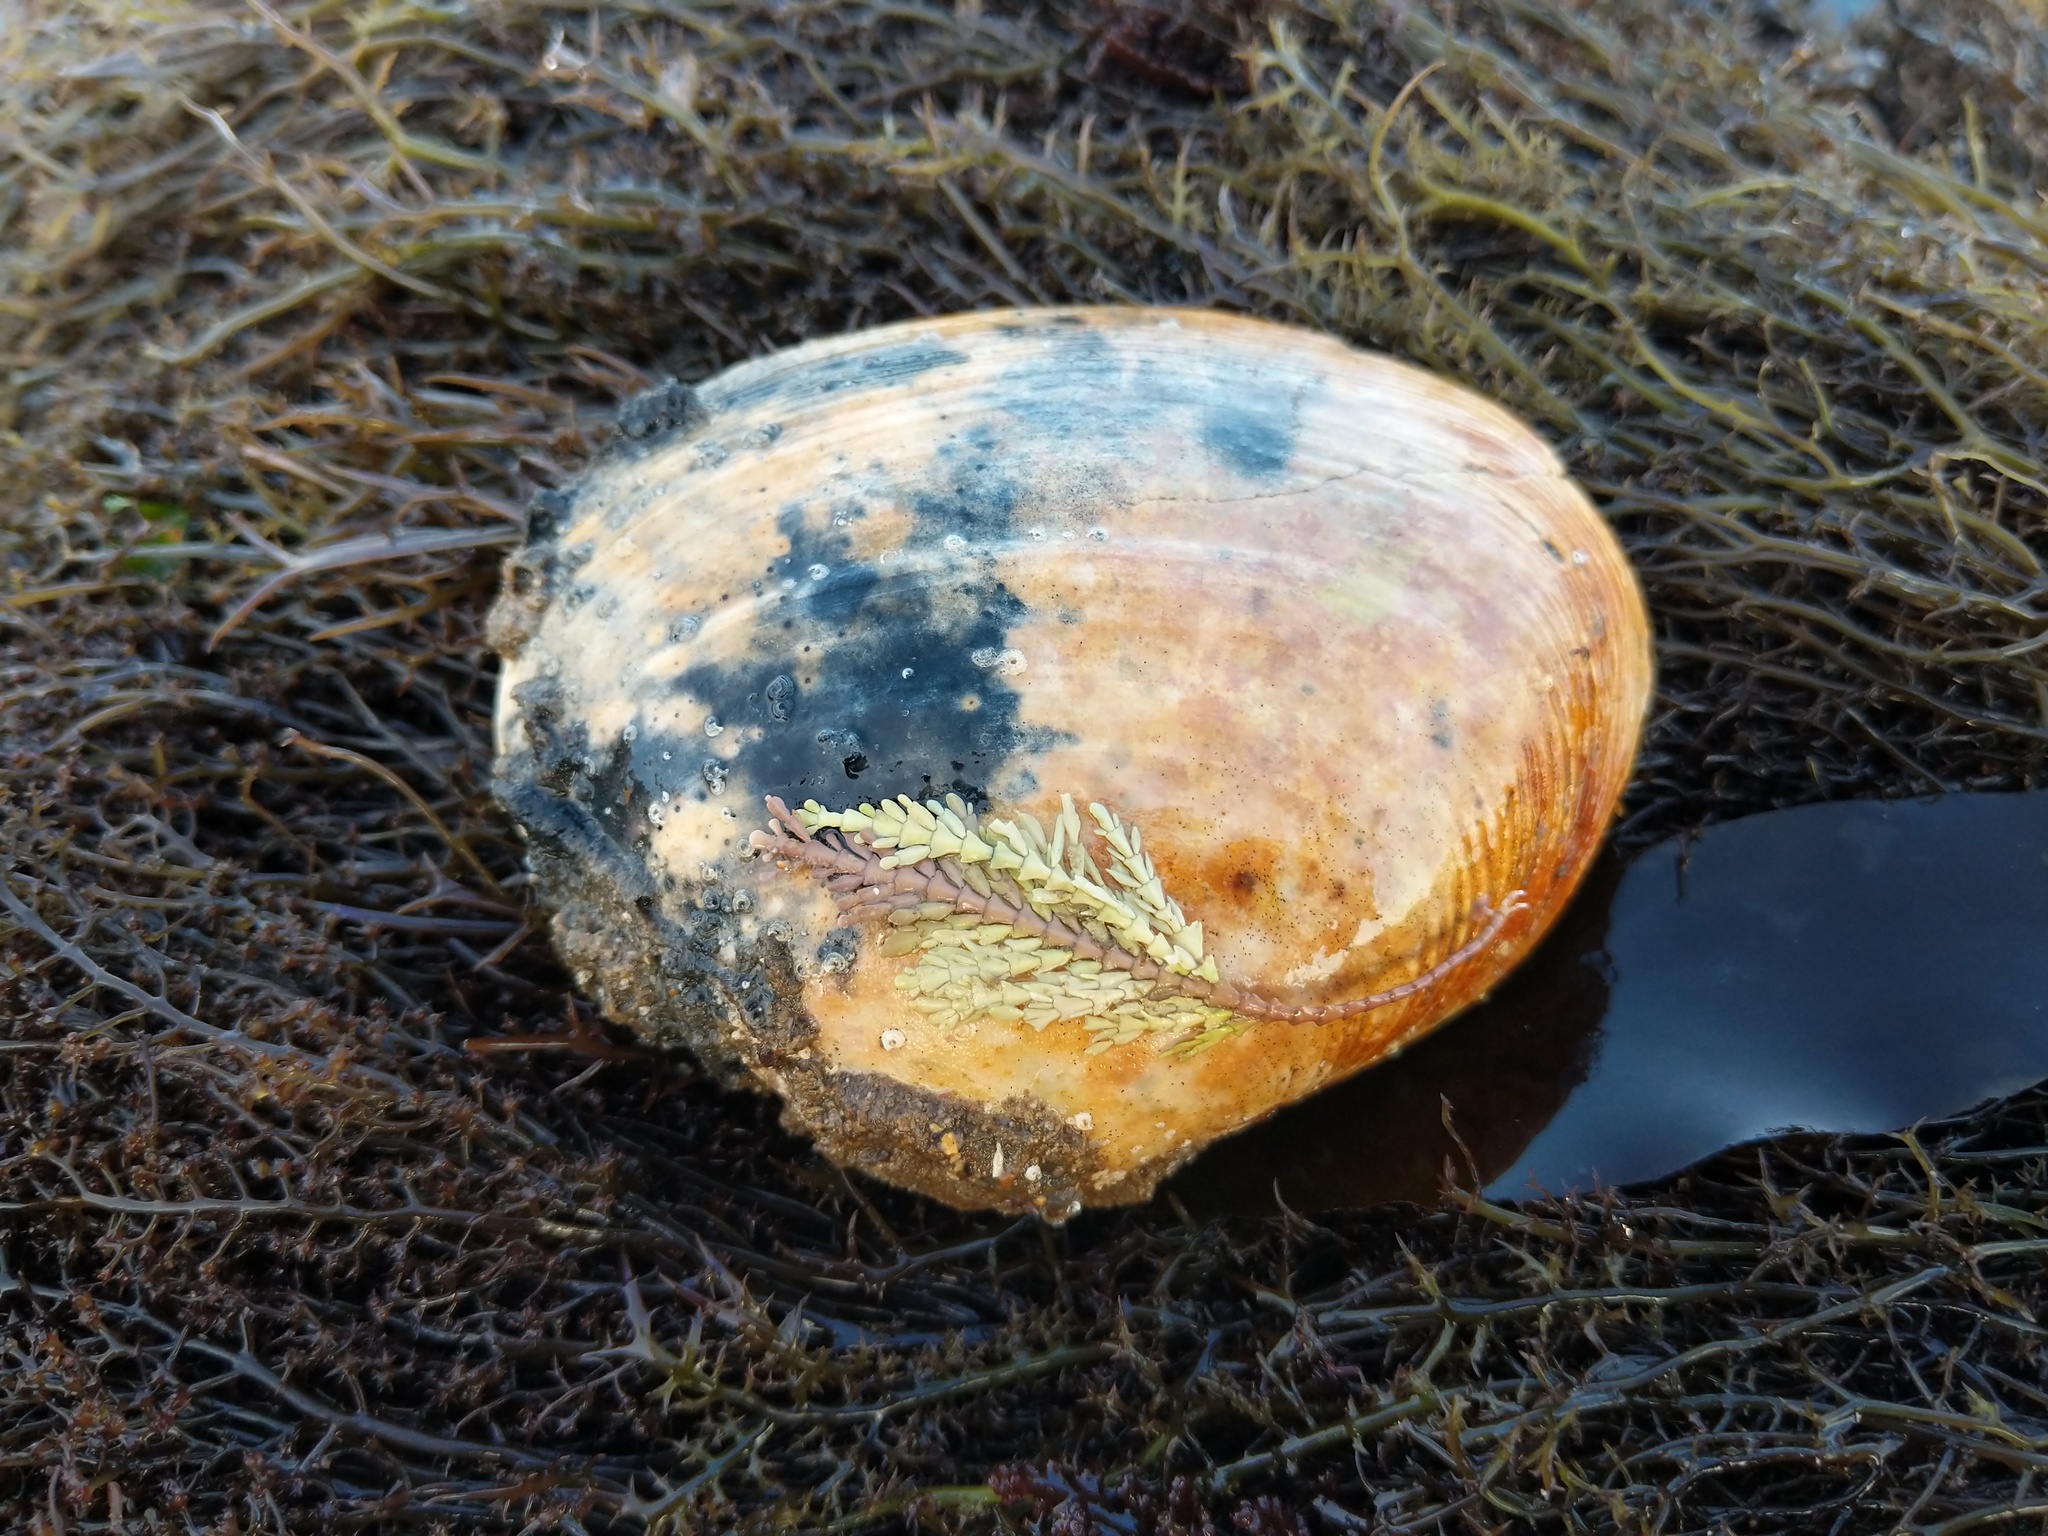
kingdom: Animalia
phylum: Mollusca
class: Bivalvia
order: Venerida
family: Veneridae
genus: Saxidomus
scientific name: Saxidomus nuttalli
